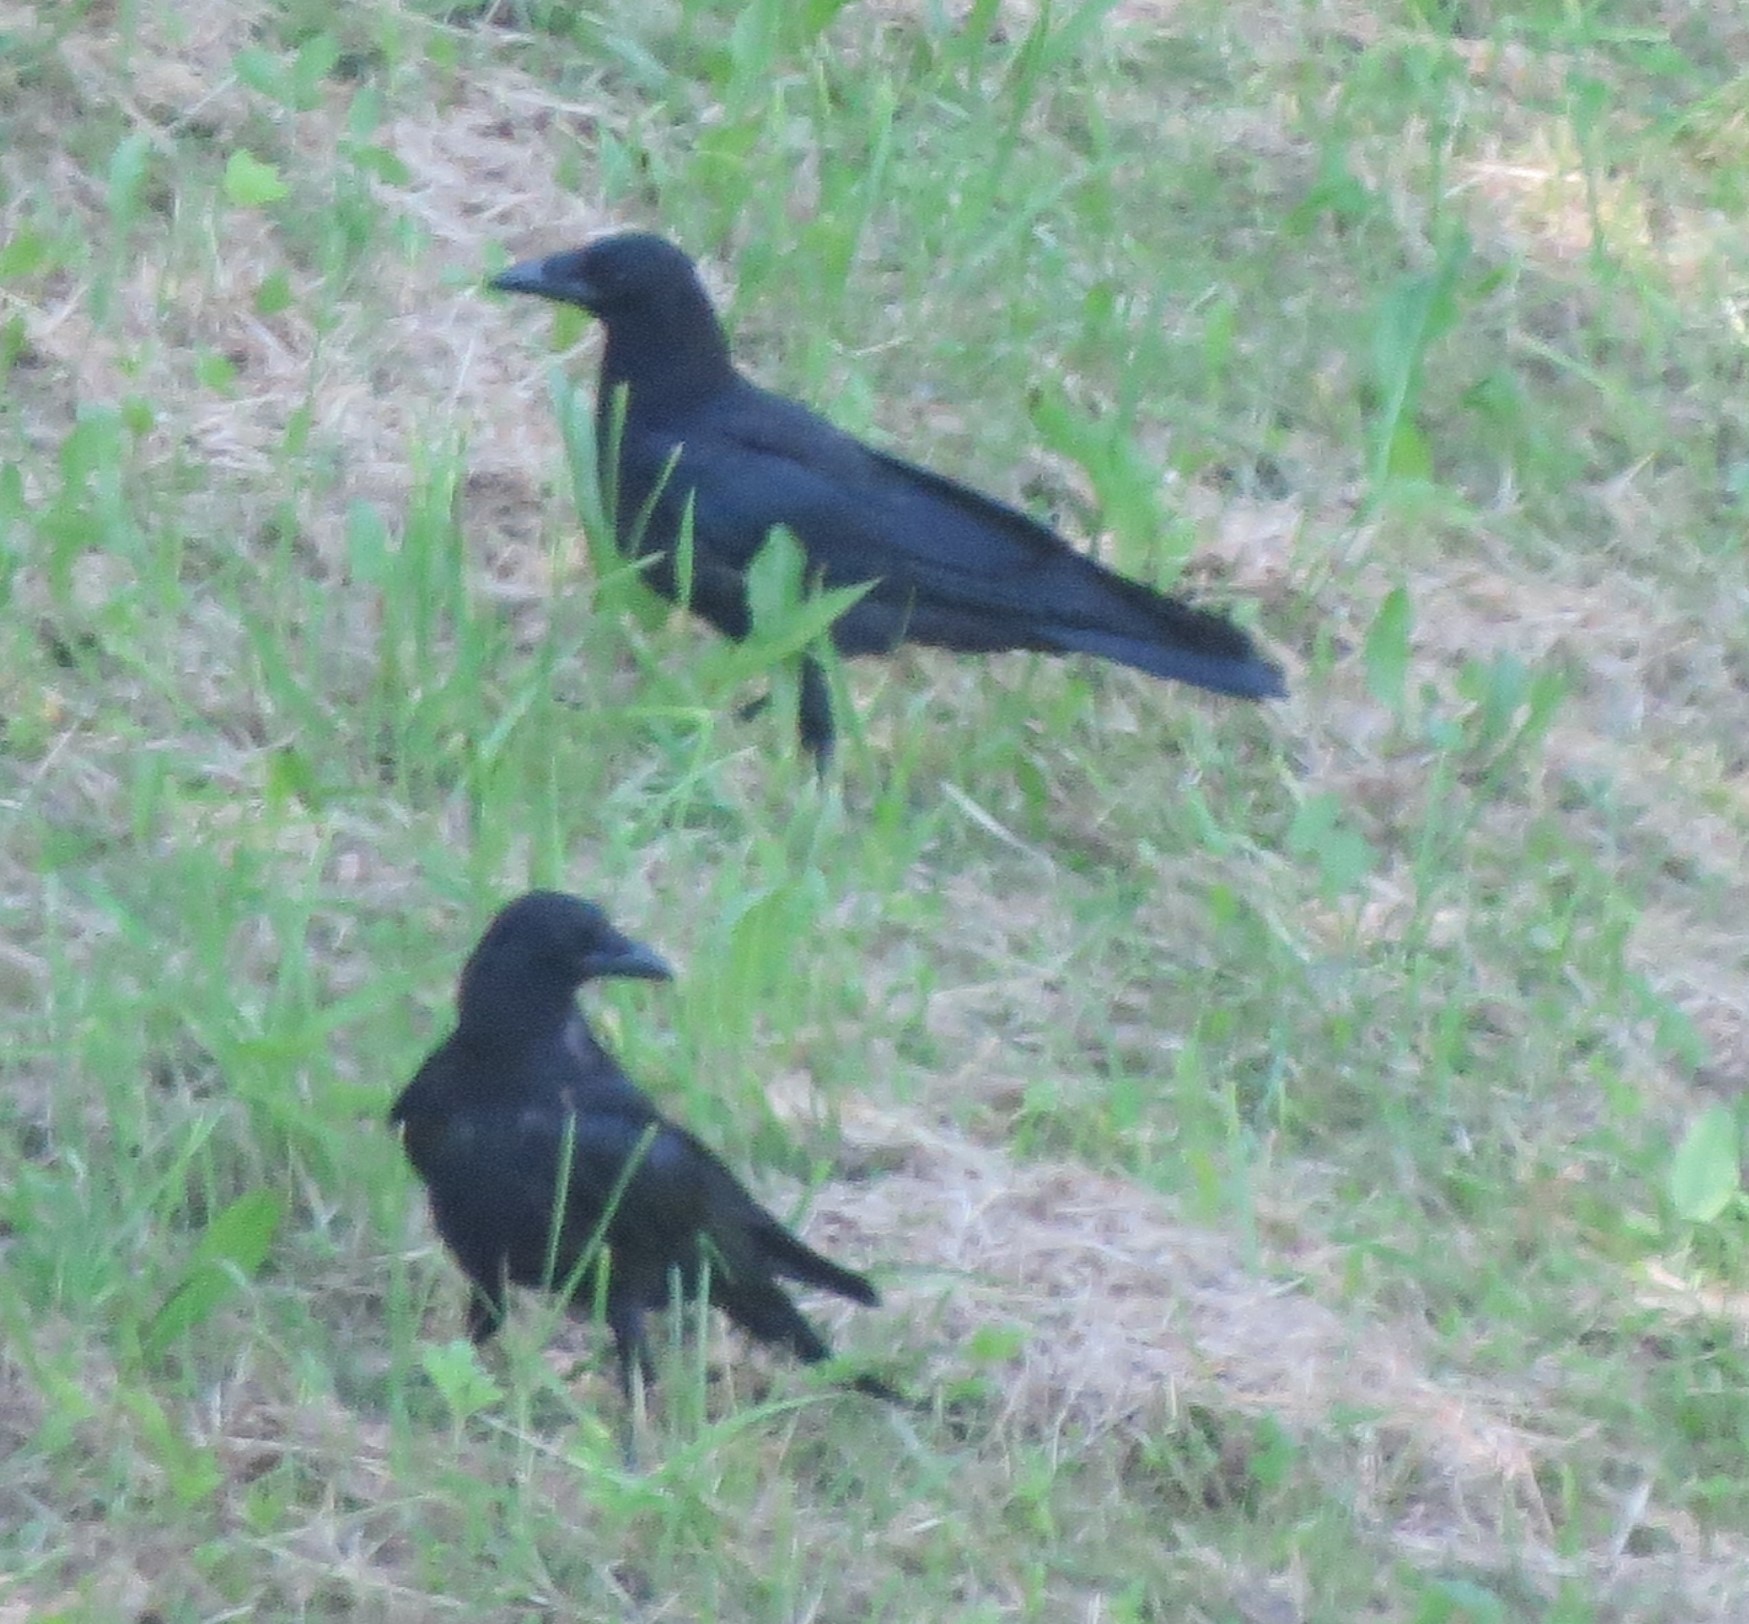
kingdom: Animalia
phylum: Chordata
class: Aves
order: Passeriformes
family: Corvidae
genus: Corvus
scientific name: Corvus corone
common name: Carrion crow
